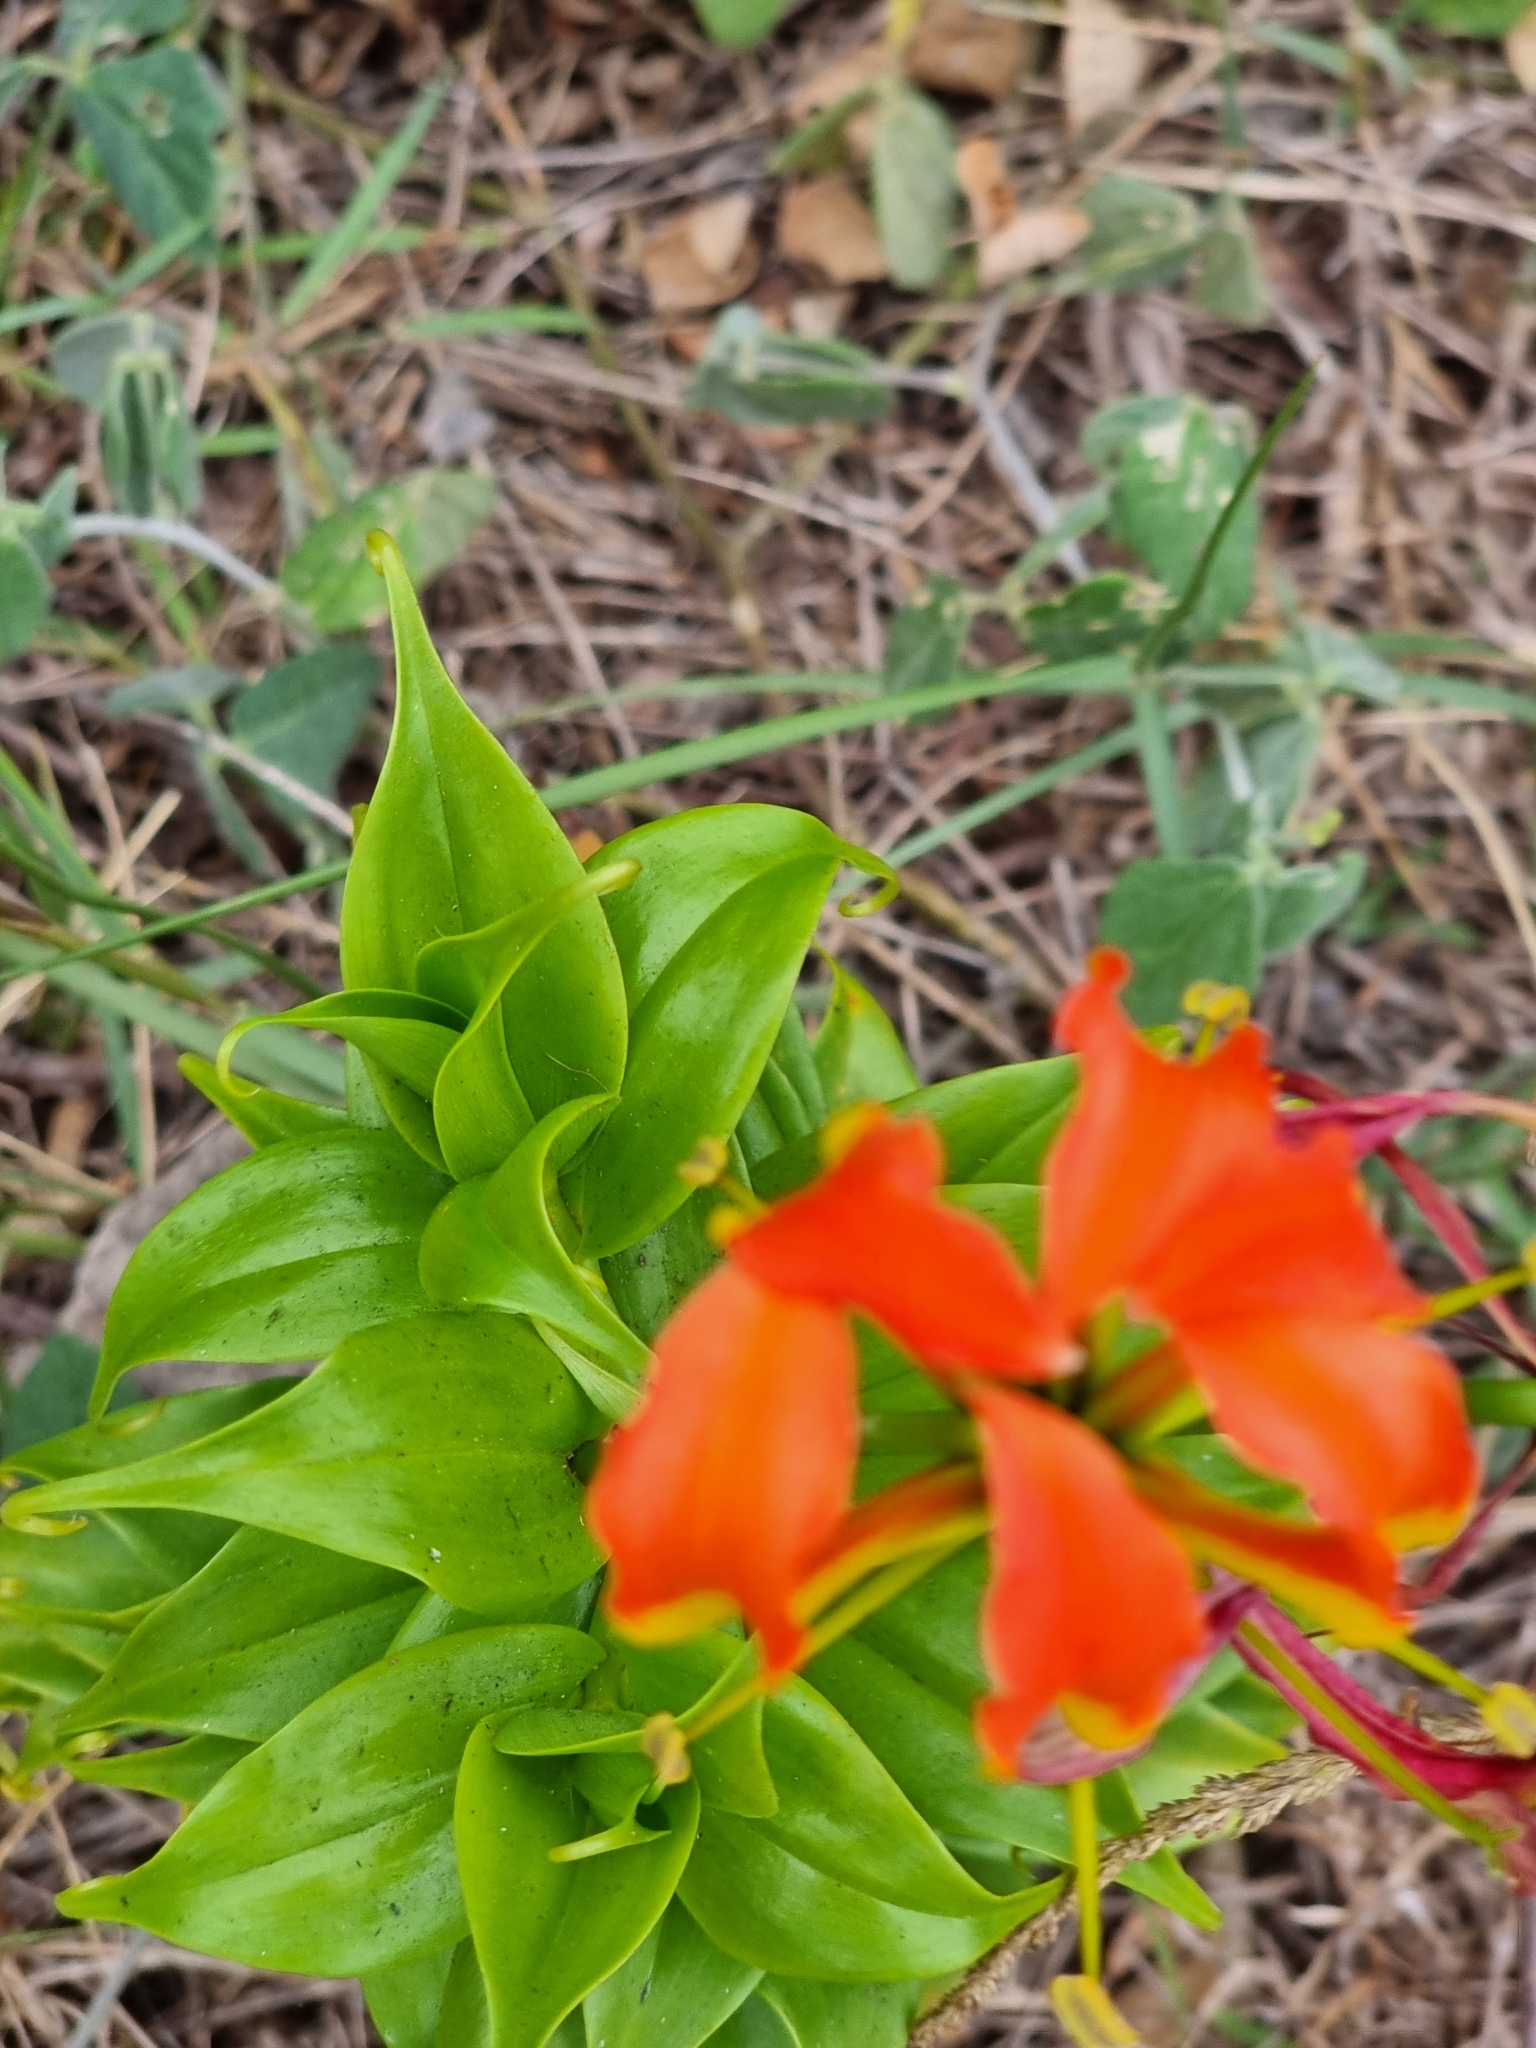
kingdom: Plantae
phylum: Tracheophyta
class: Liliopsida
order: Liliales
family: Colchicaceae
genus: Gloriosa
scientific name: Gloriosa superba
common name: Flame lily
